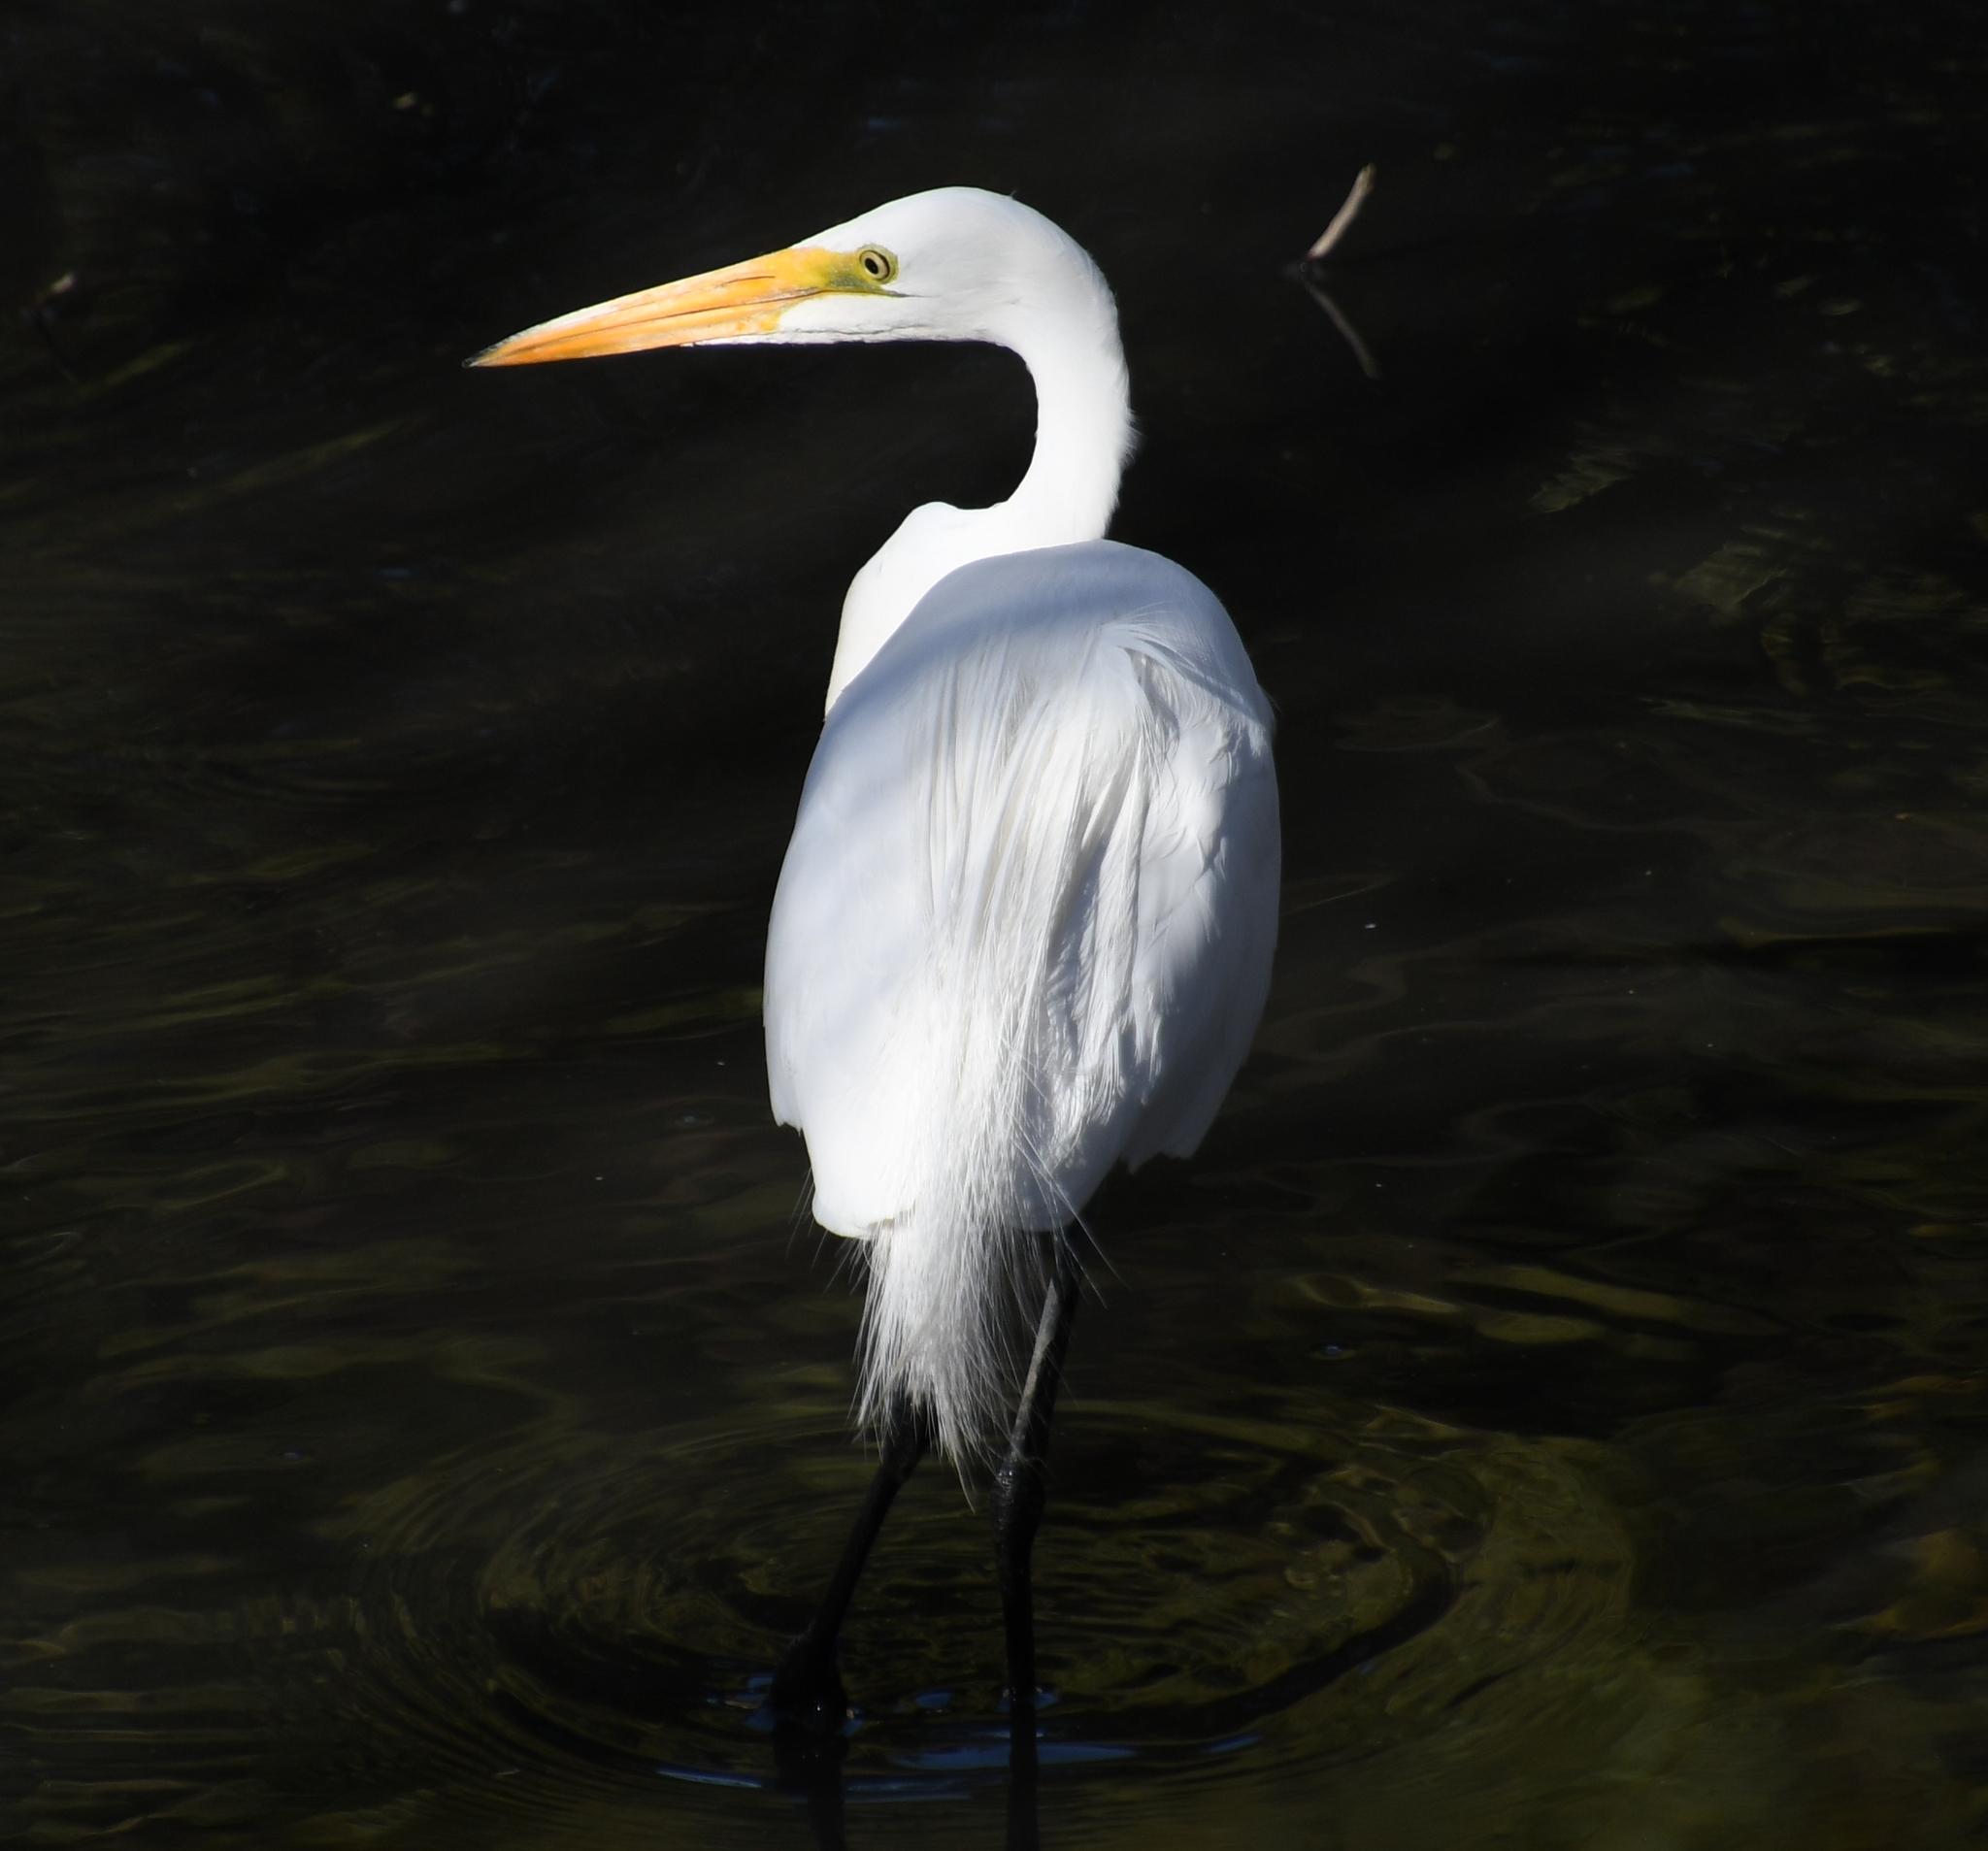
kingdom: Animalia
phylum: Chordata
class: Aves
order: Pelecaniformes
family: Ardeidae
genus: Ardea
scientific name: Ardea alba
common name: Great egret
